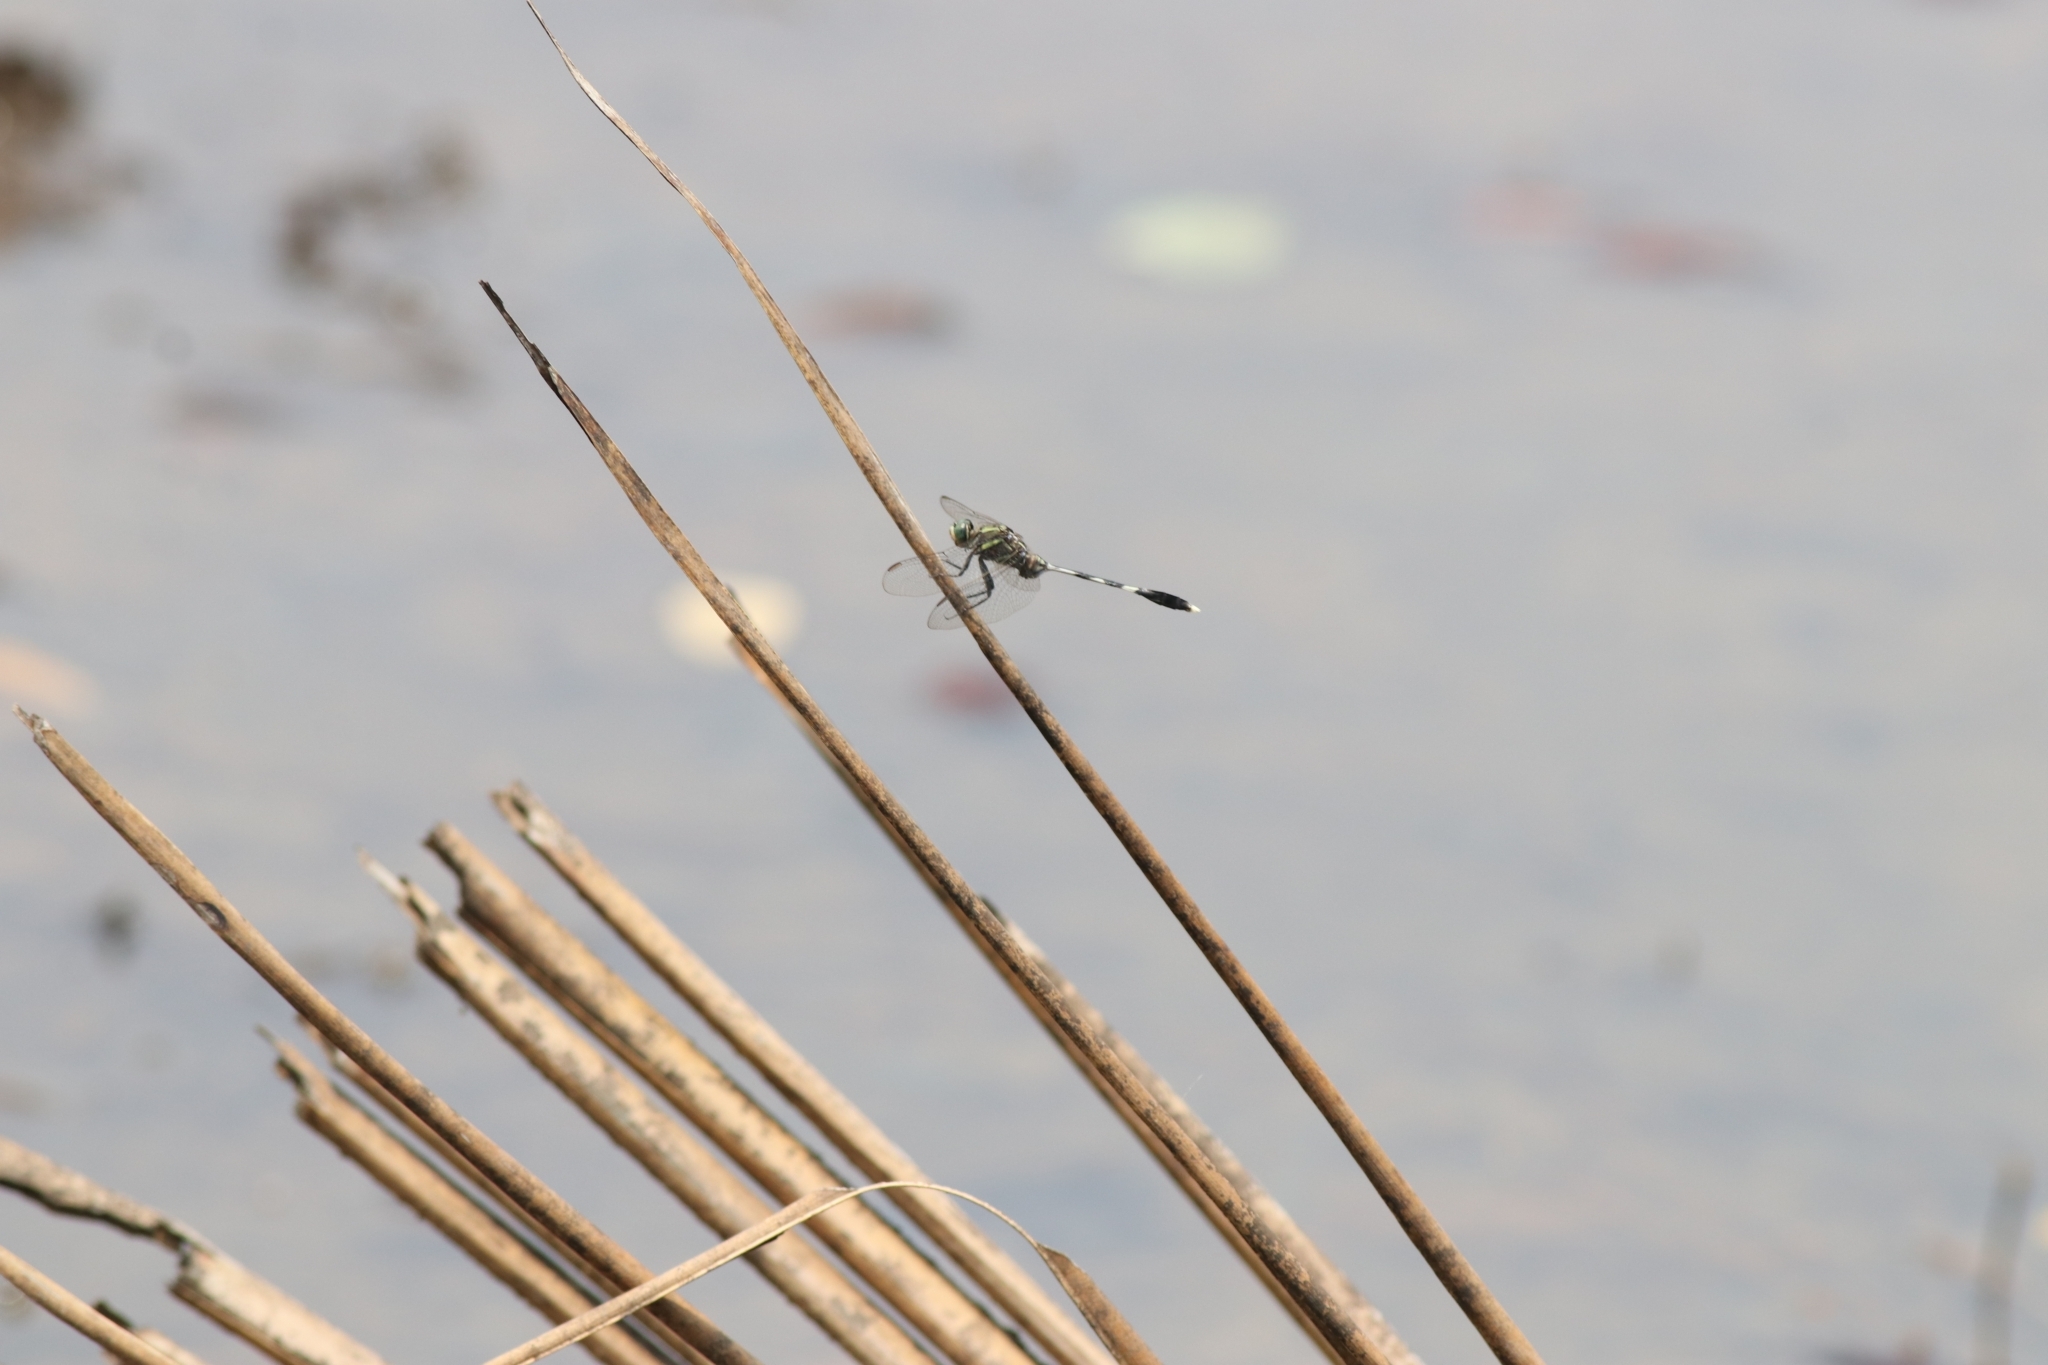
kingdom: Animalia
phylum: Arthropoda
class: Insecta
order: Odonata
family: Libellulidae
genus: Orthetrum
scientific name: Orthetrum sabina
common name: Slender skimmer
